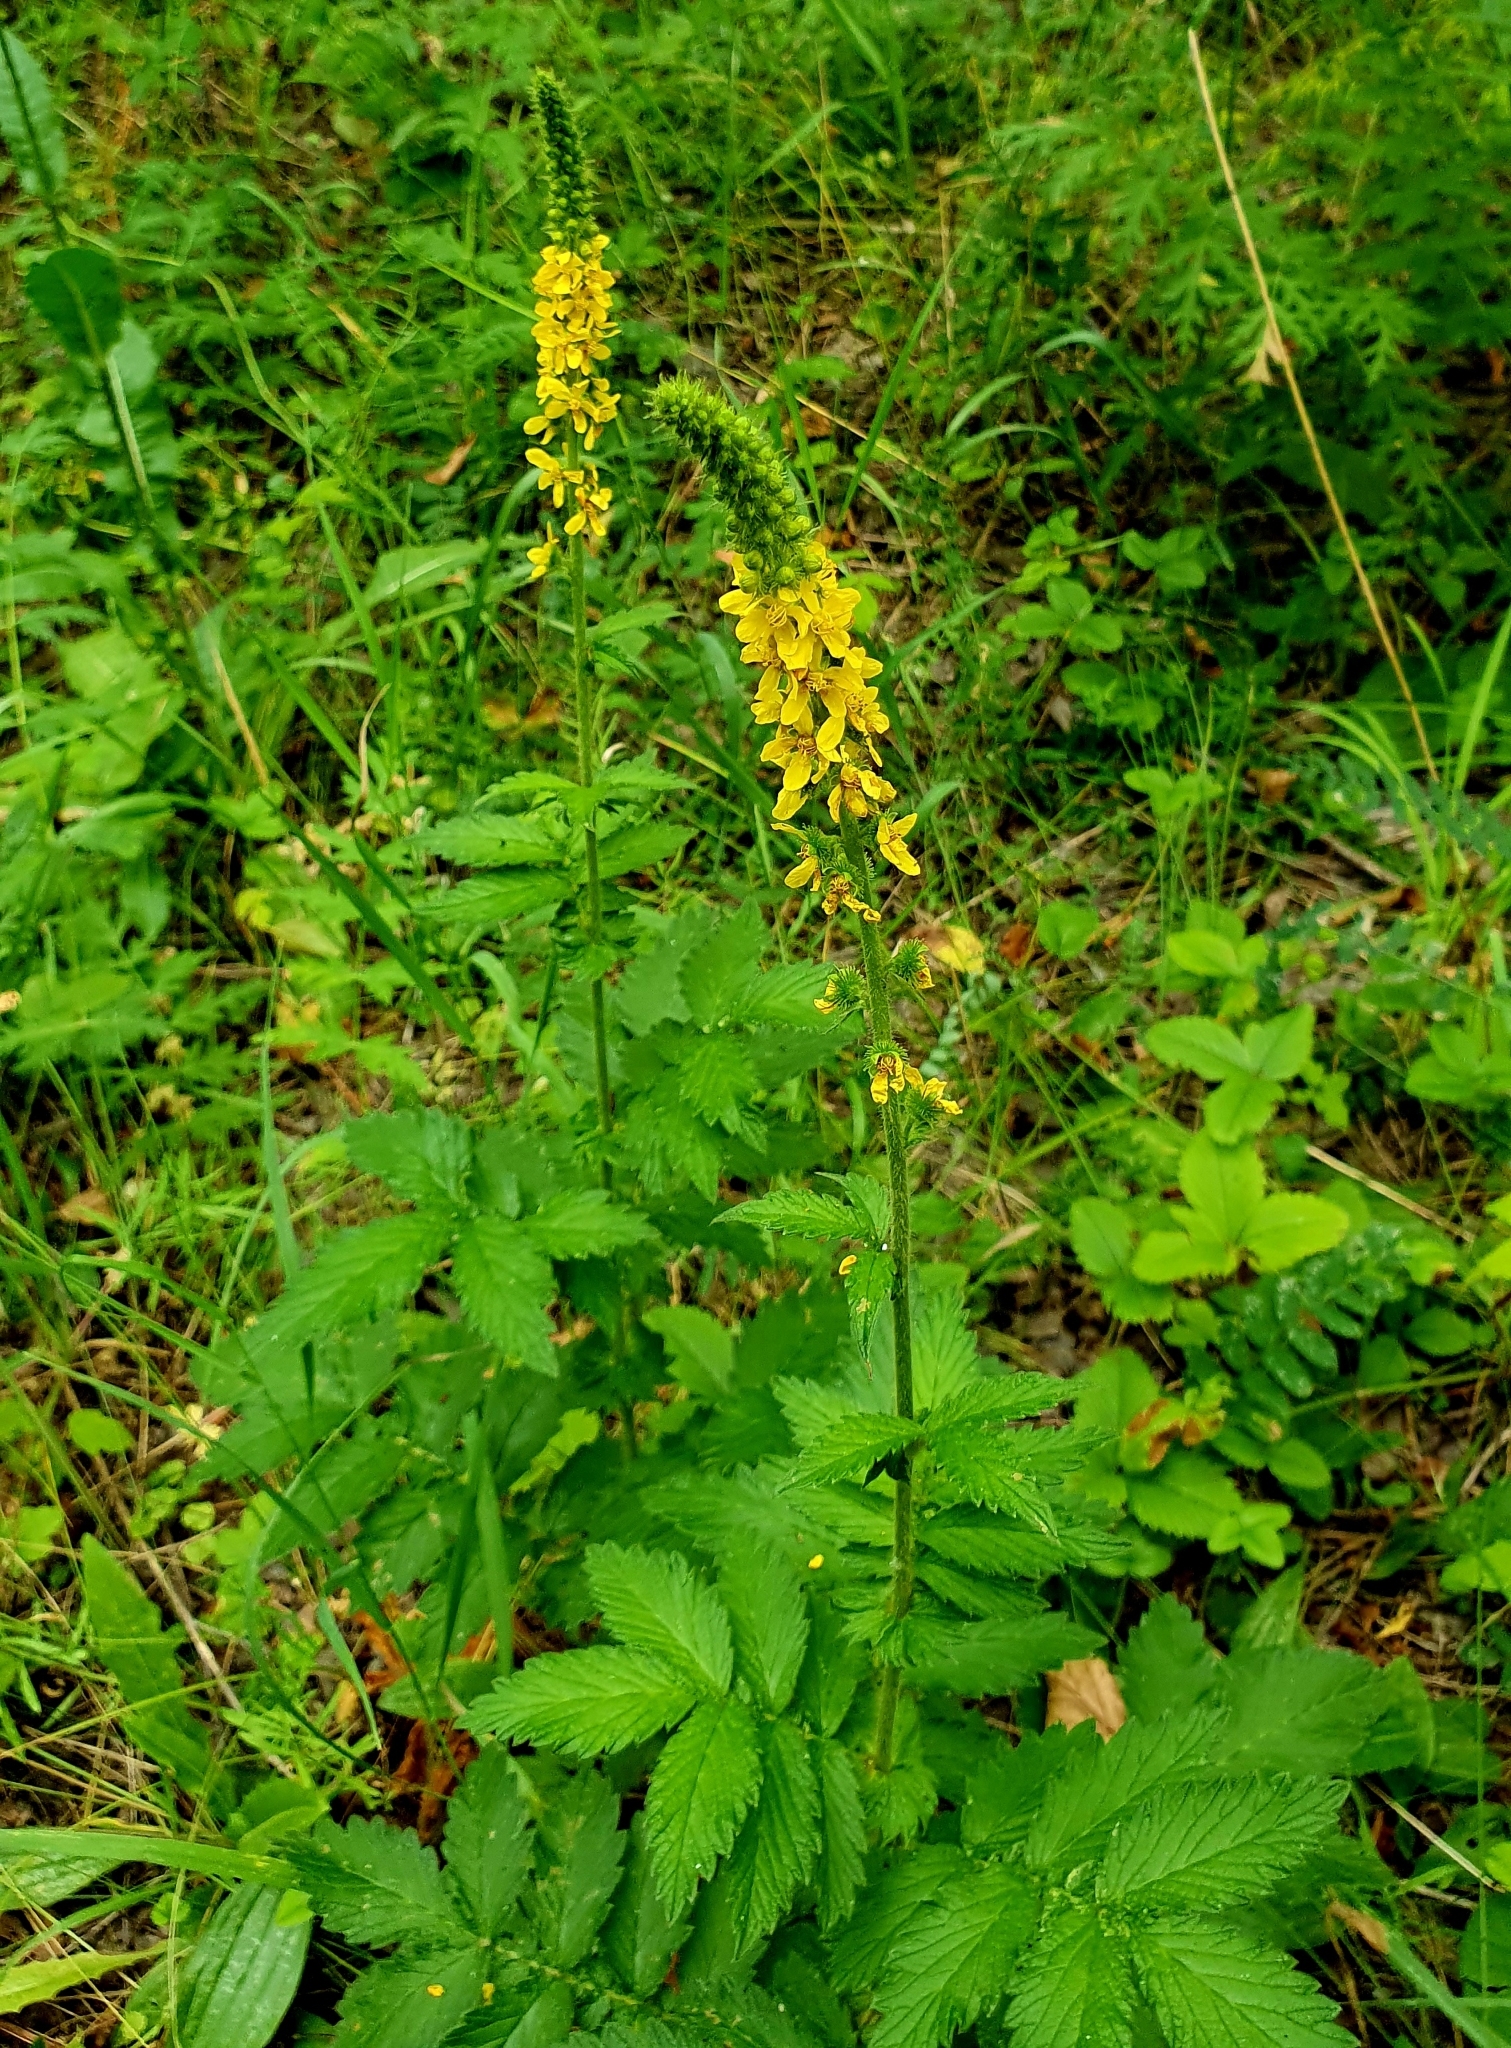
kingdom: Plantae
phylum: Tracheophyta
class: Magnoliopsida
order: Rosales
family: Rosaceae
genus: Agrimonia
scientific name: Agrimonia eupatoria
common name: Agrimony
